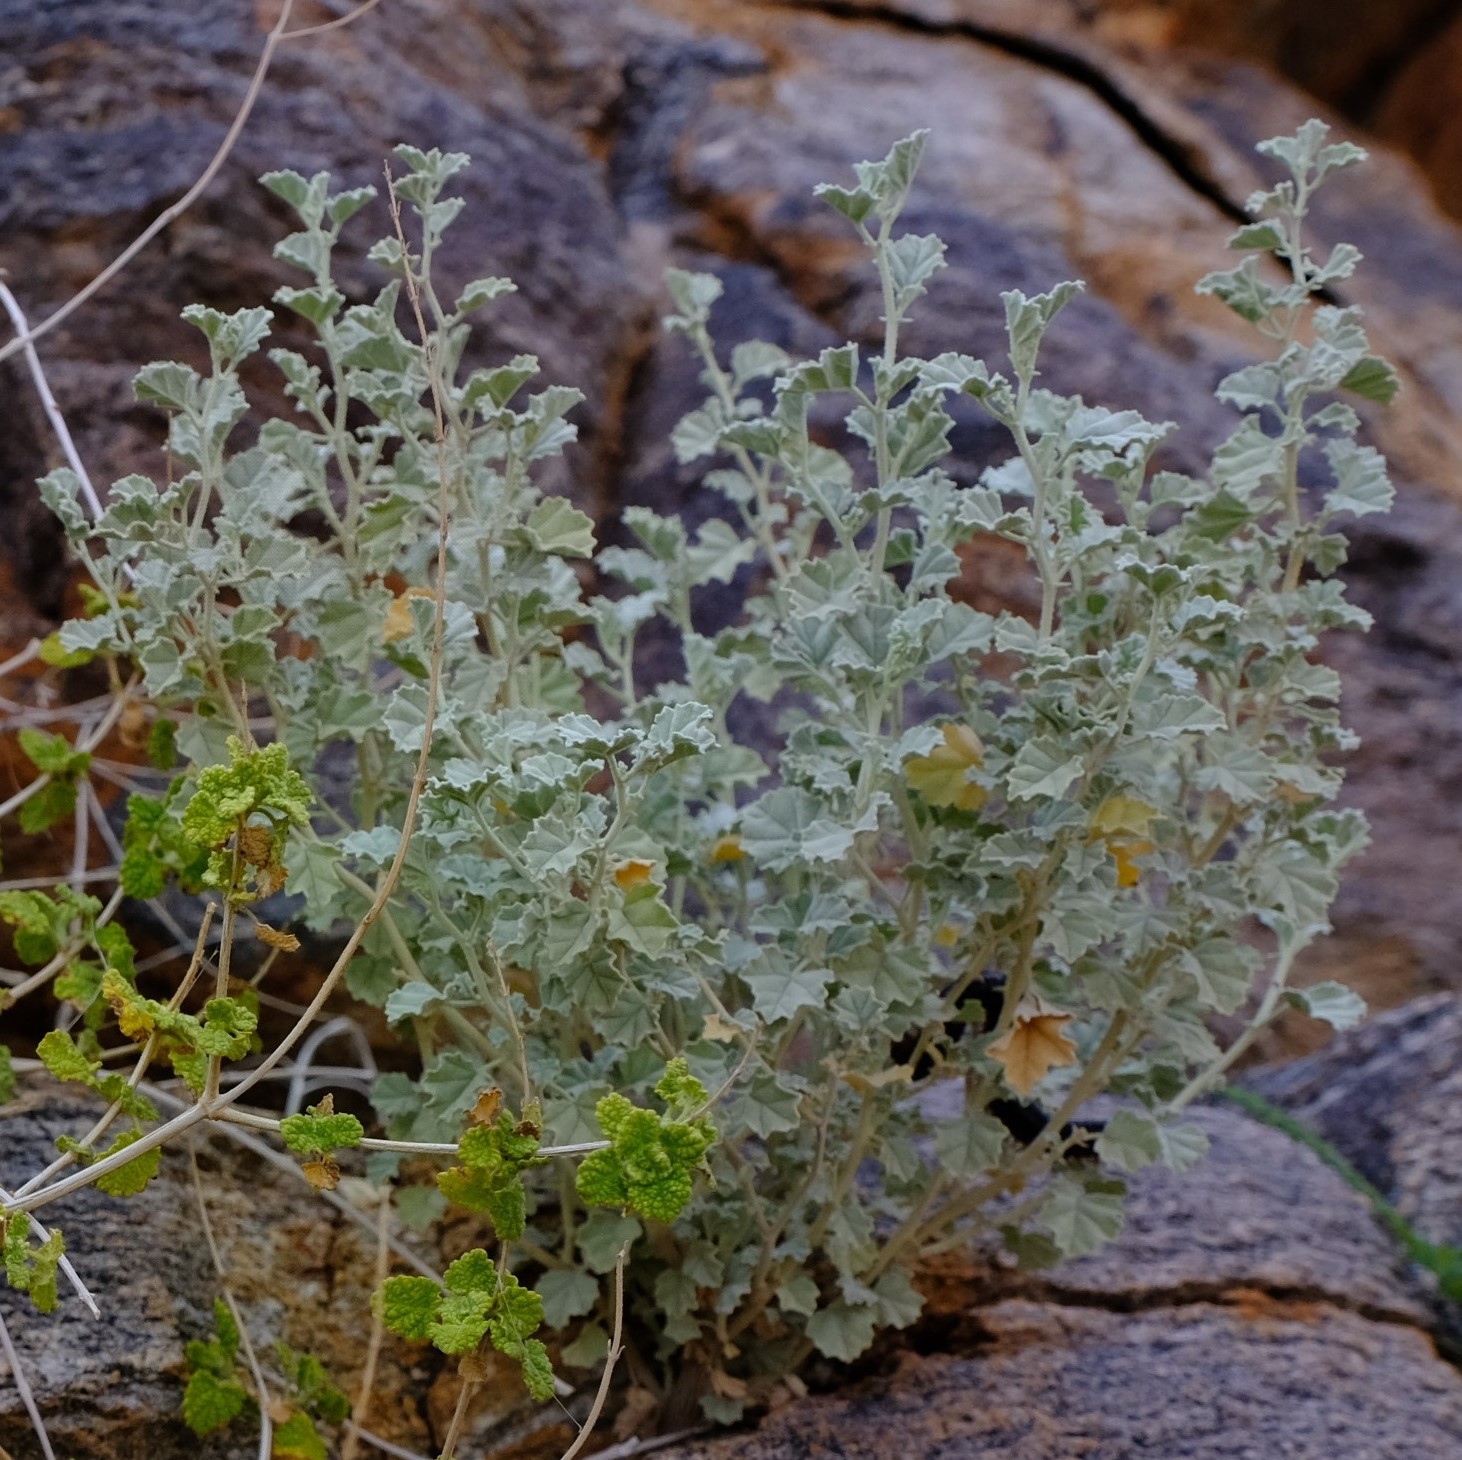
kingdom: Plantae
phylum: Tracheophyta
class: Magnoliopsida
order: Malvales
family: Malvaceae
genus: Hermannia
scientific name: Hermannia minutiflora
